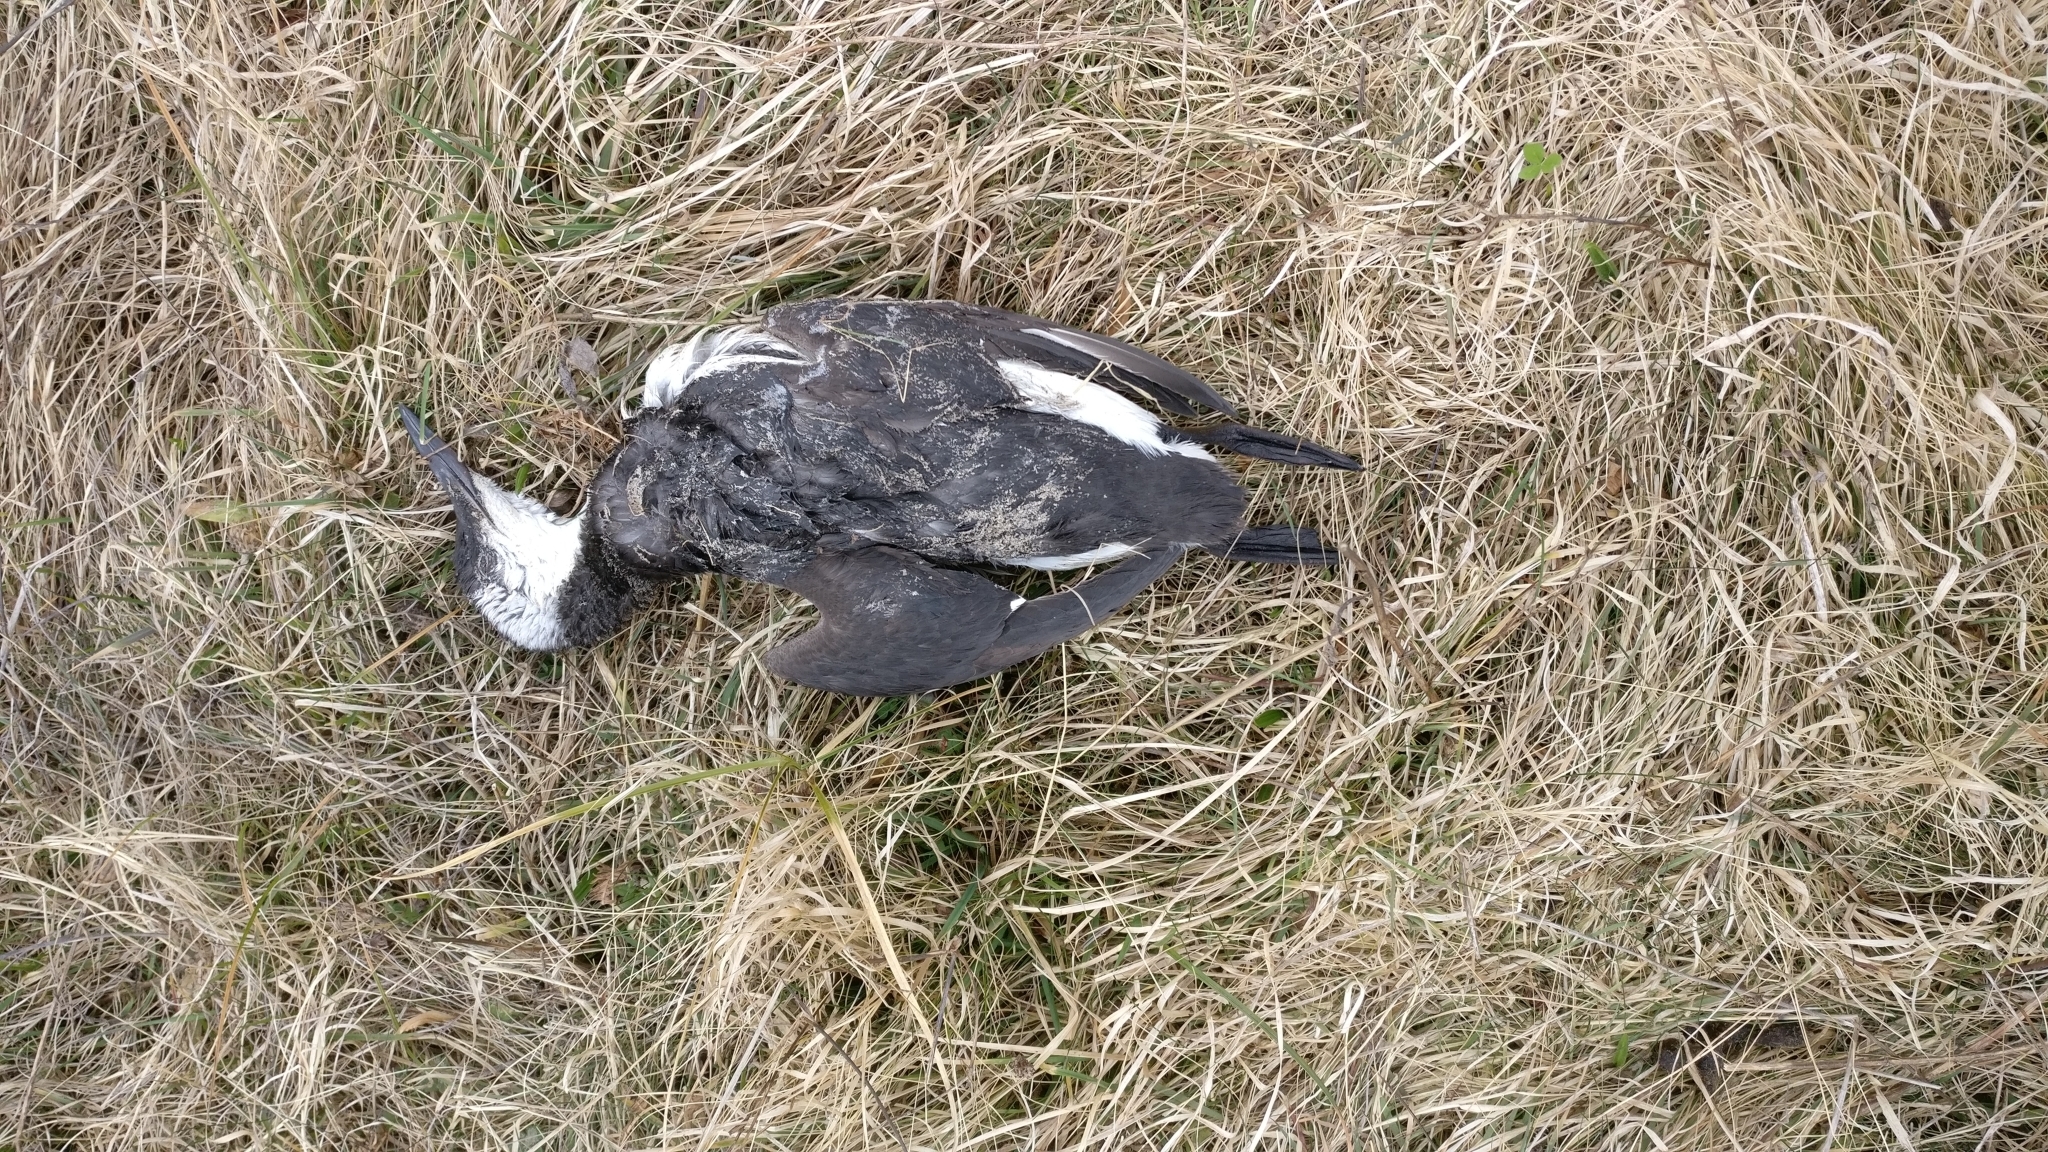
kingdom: Animalia
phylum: Chordata
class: Aves
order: Charadriiformes
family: Alcidae
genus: Uria
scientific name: Uria aalge
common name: Common murre
